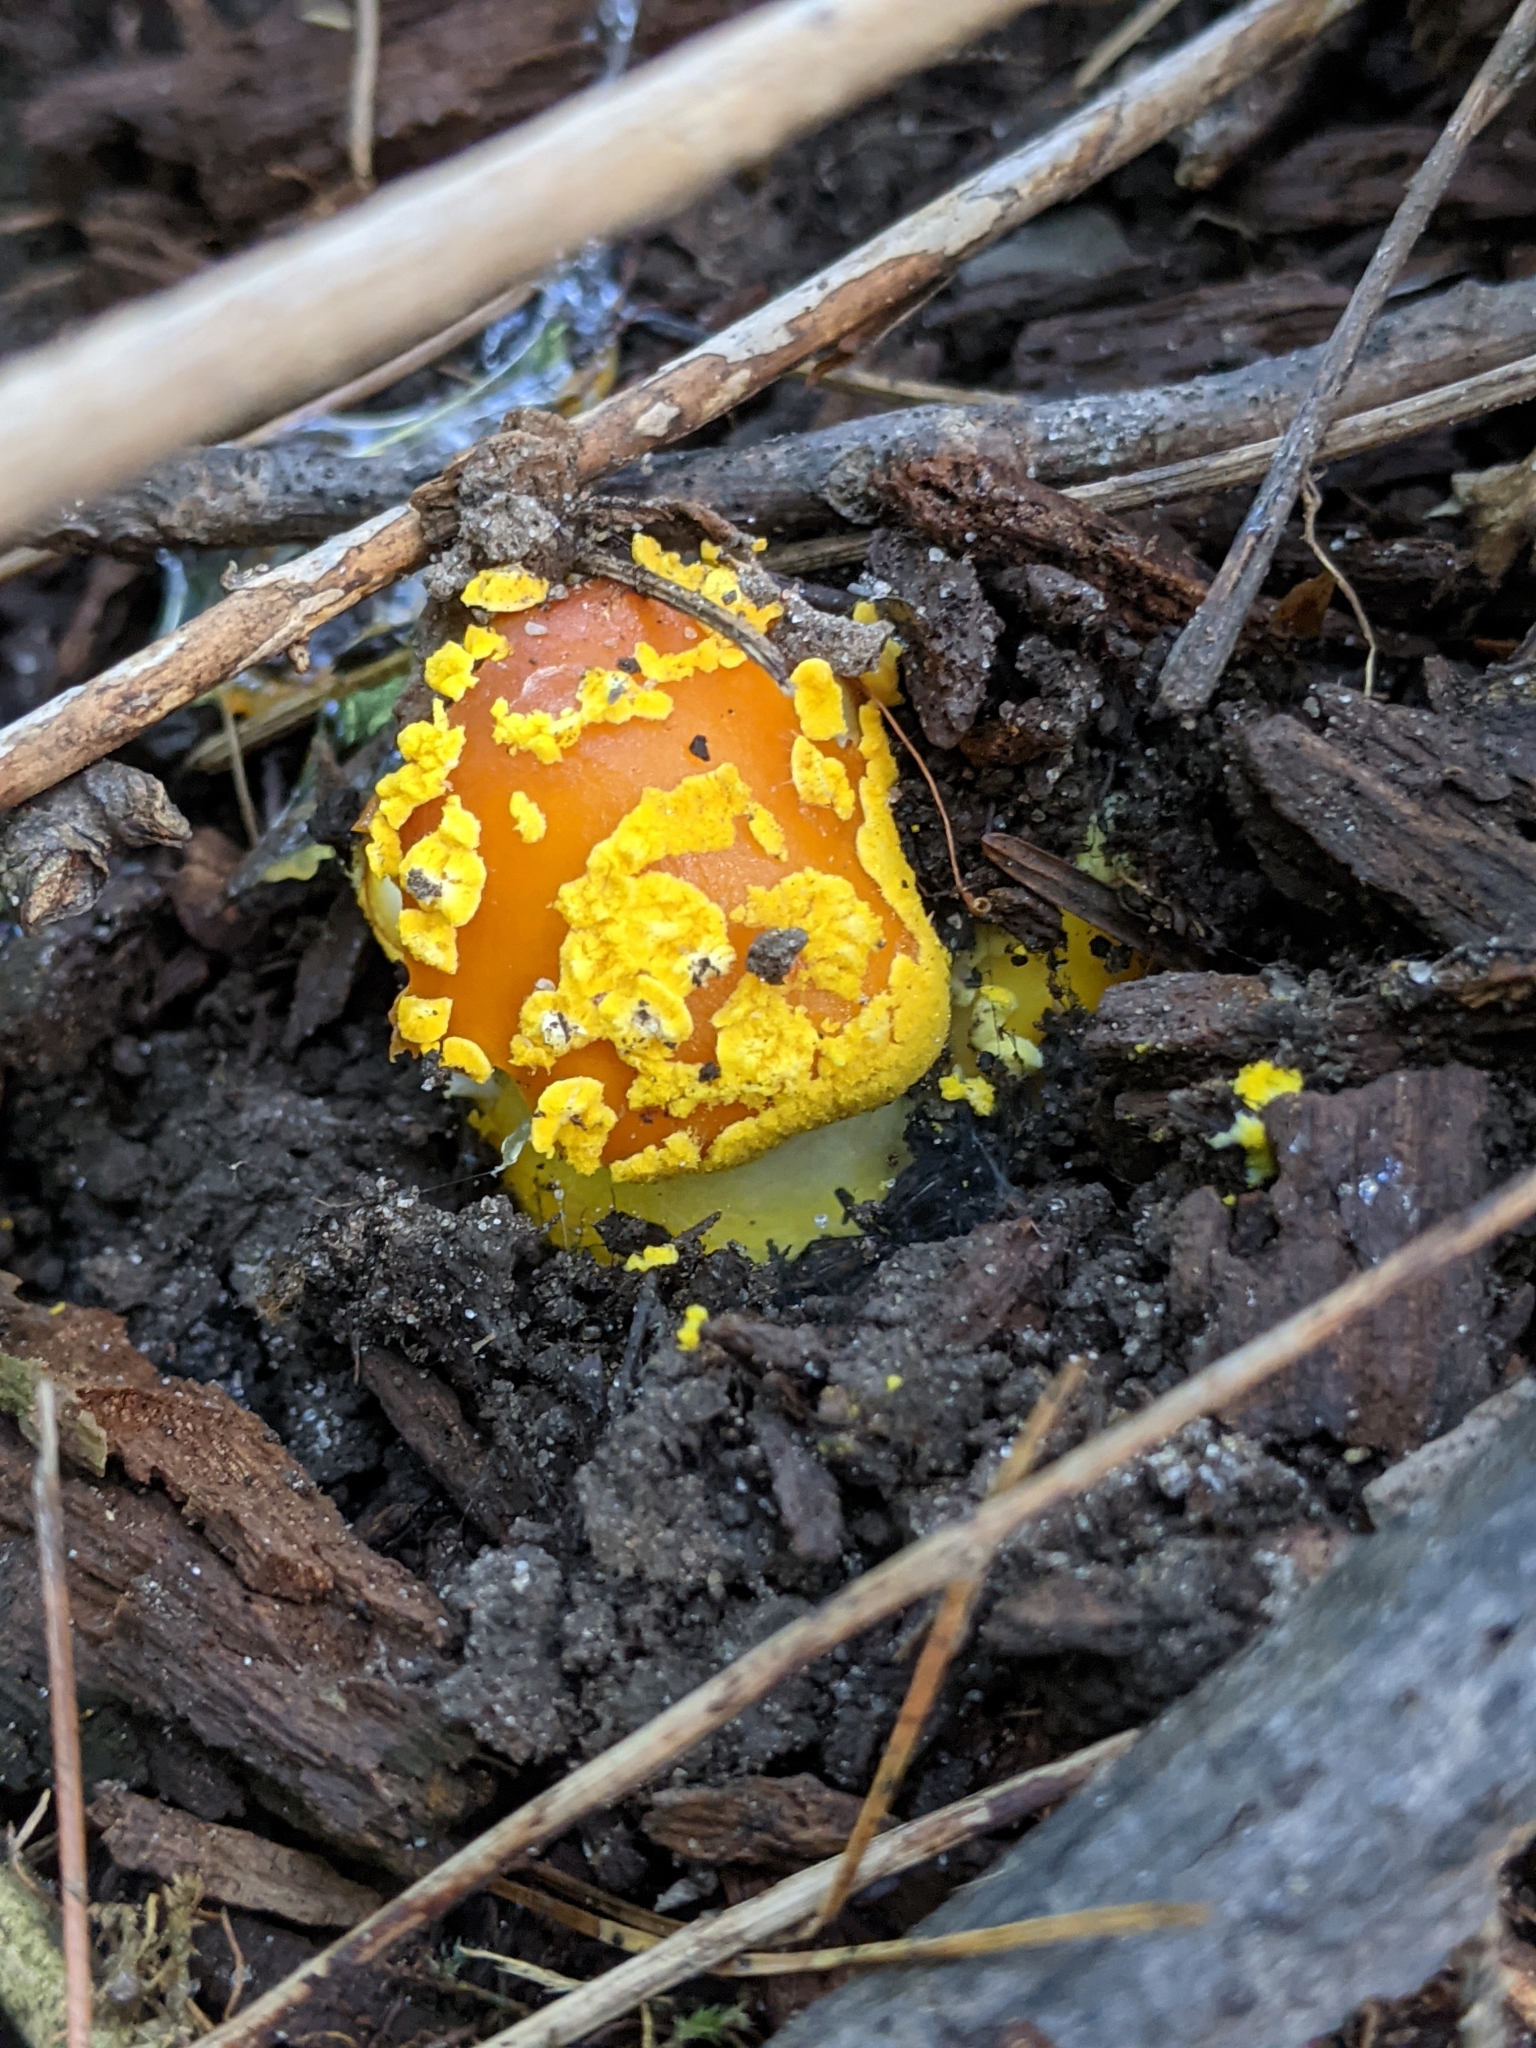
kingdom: Fungi
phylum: Basidiomycota
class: Agaricomycetes
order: Agaricales
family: Amanitaceae
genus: Amanita
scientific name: Amanita flavoconia
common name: Yellow patches
